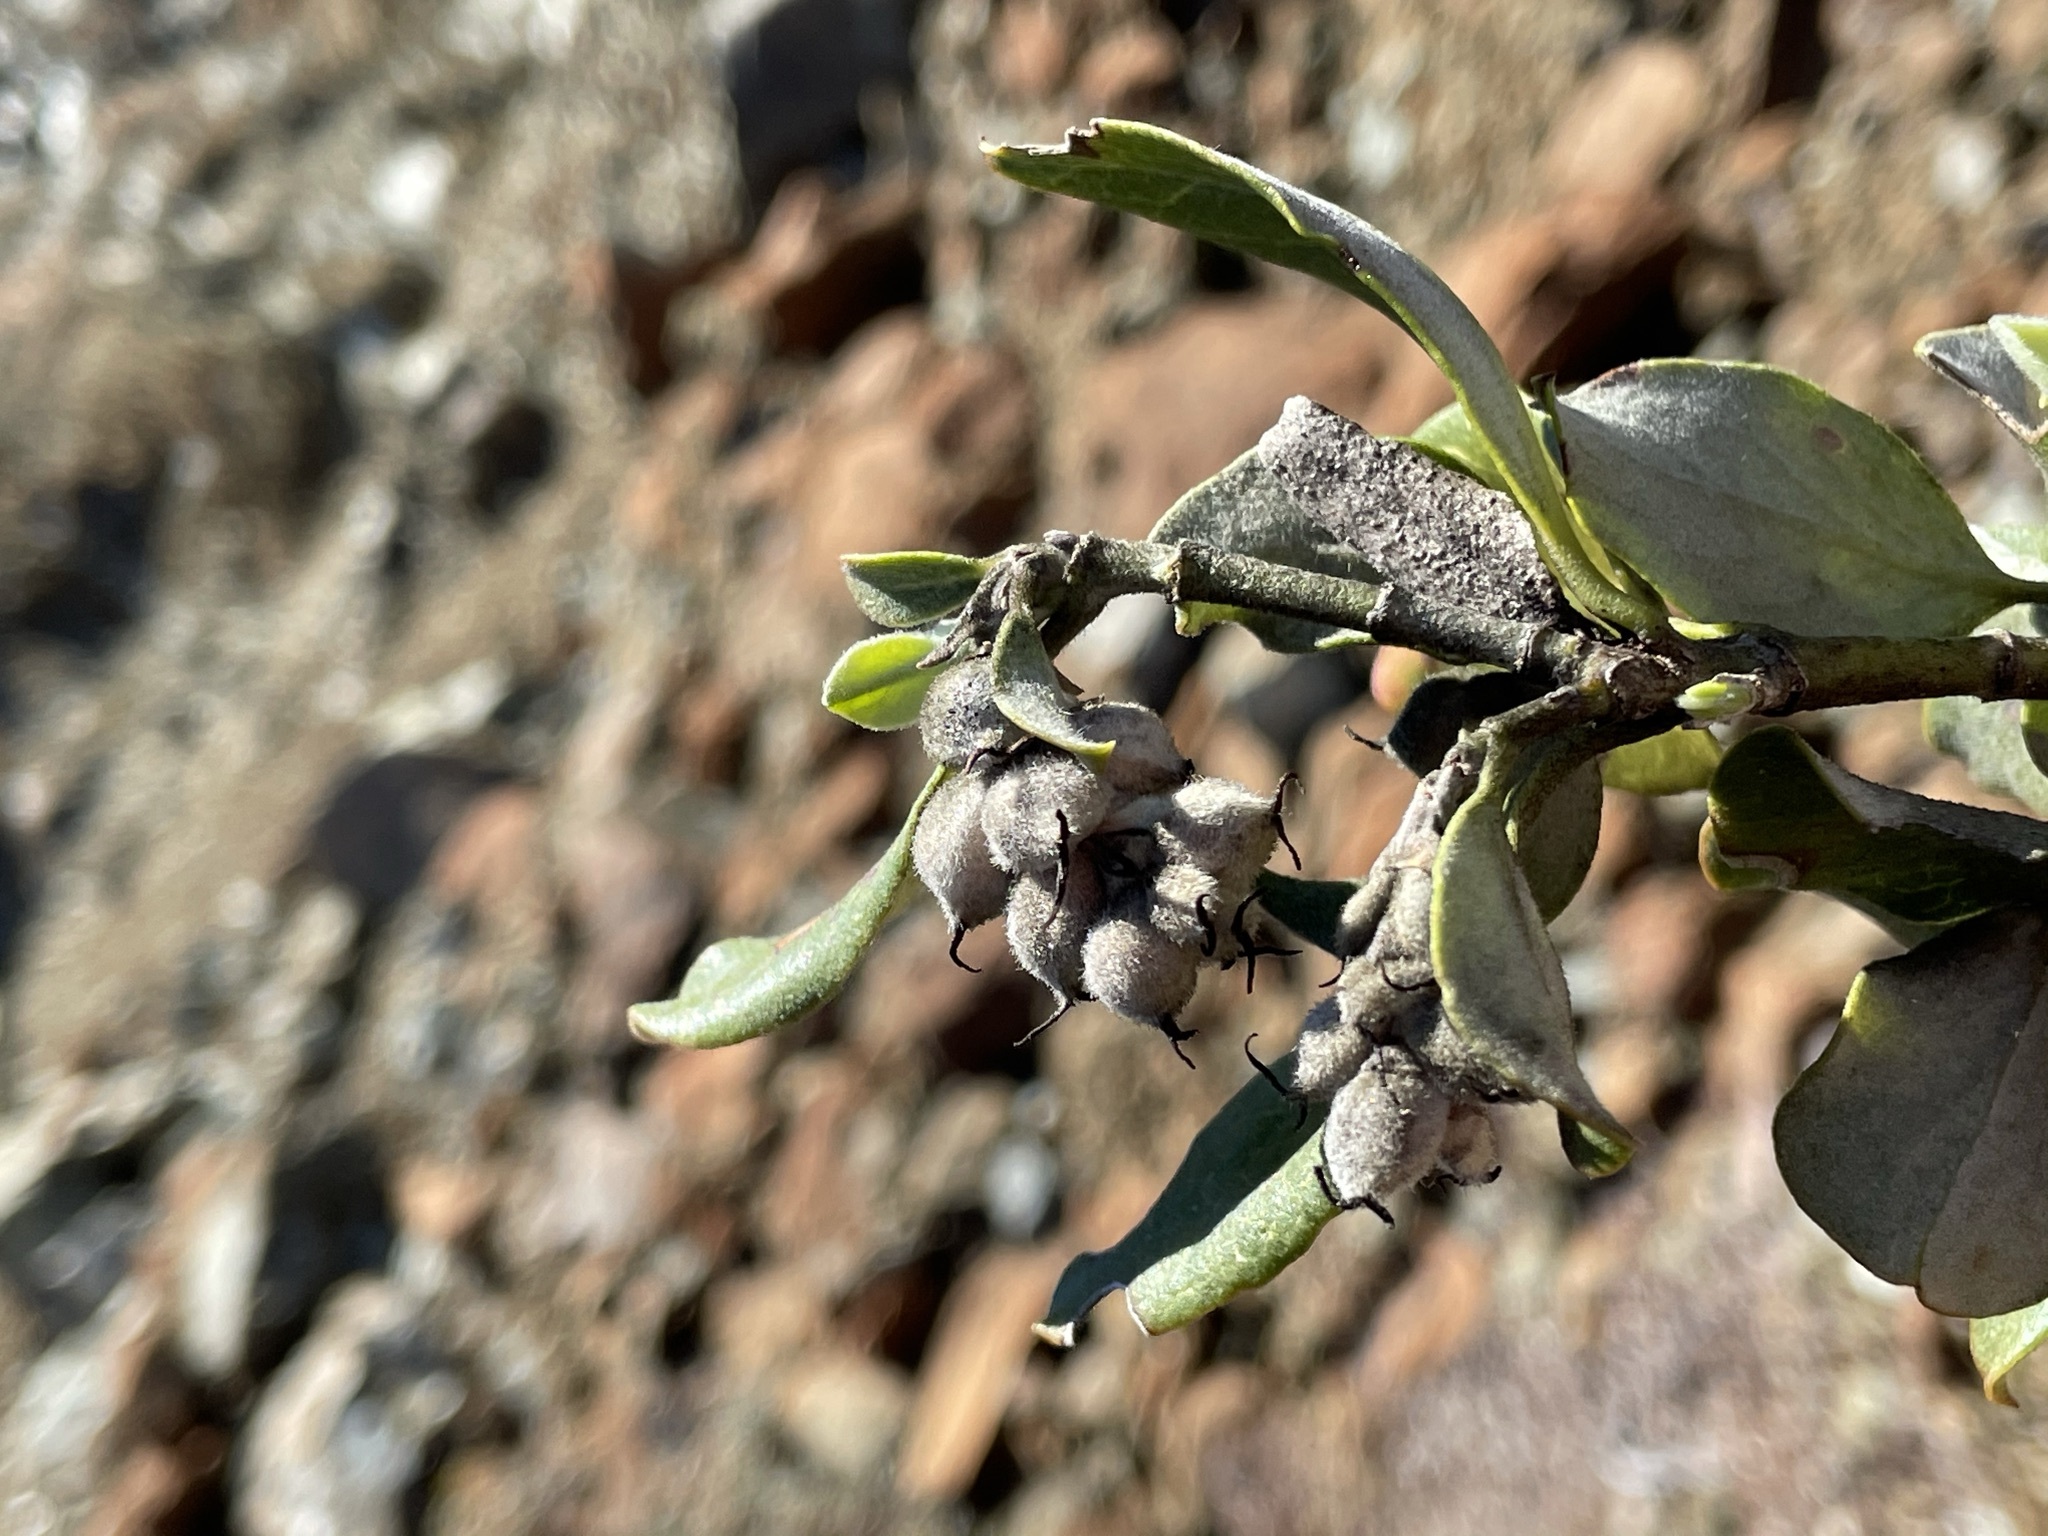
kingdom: Plantae
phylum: Tracheophyta
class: Magnoliopsida
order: Garryales
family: Garryaceae
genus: Garrya
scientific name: Garrya elliptica
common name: Silk-tassel
